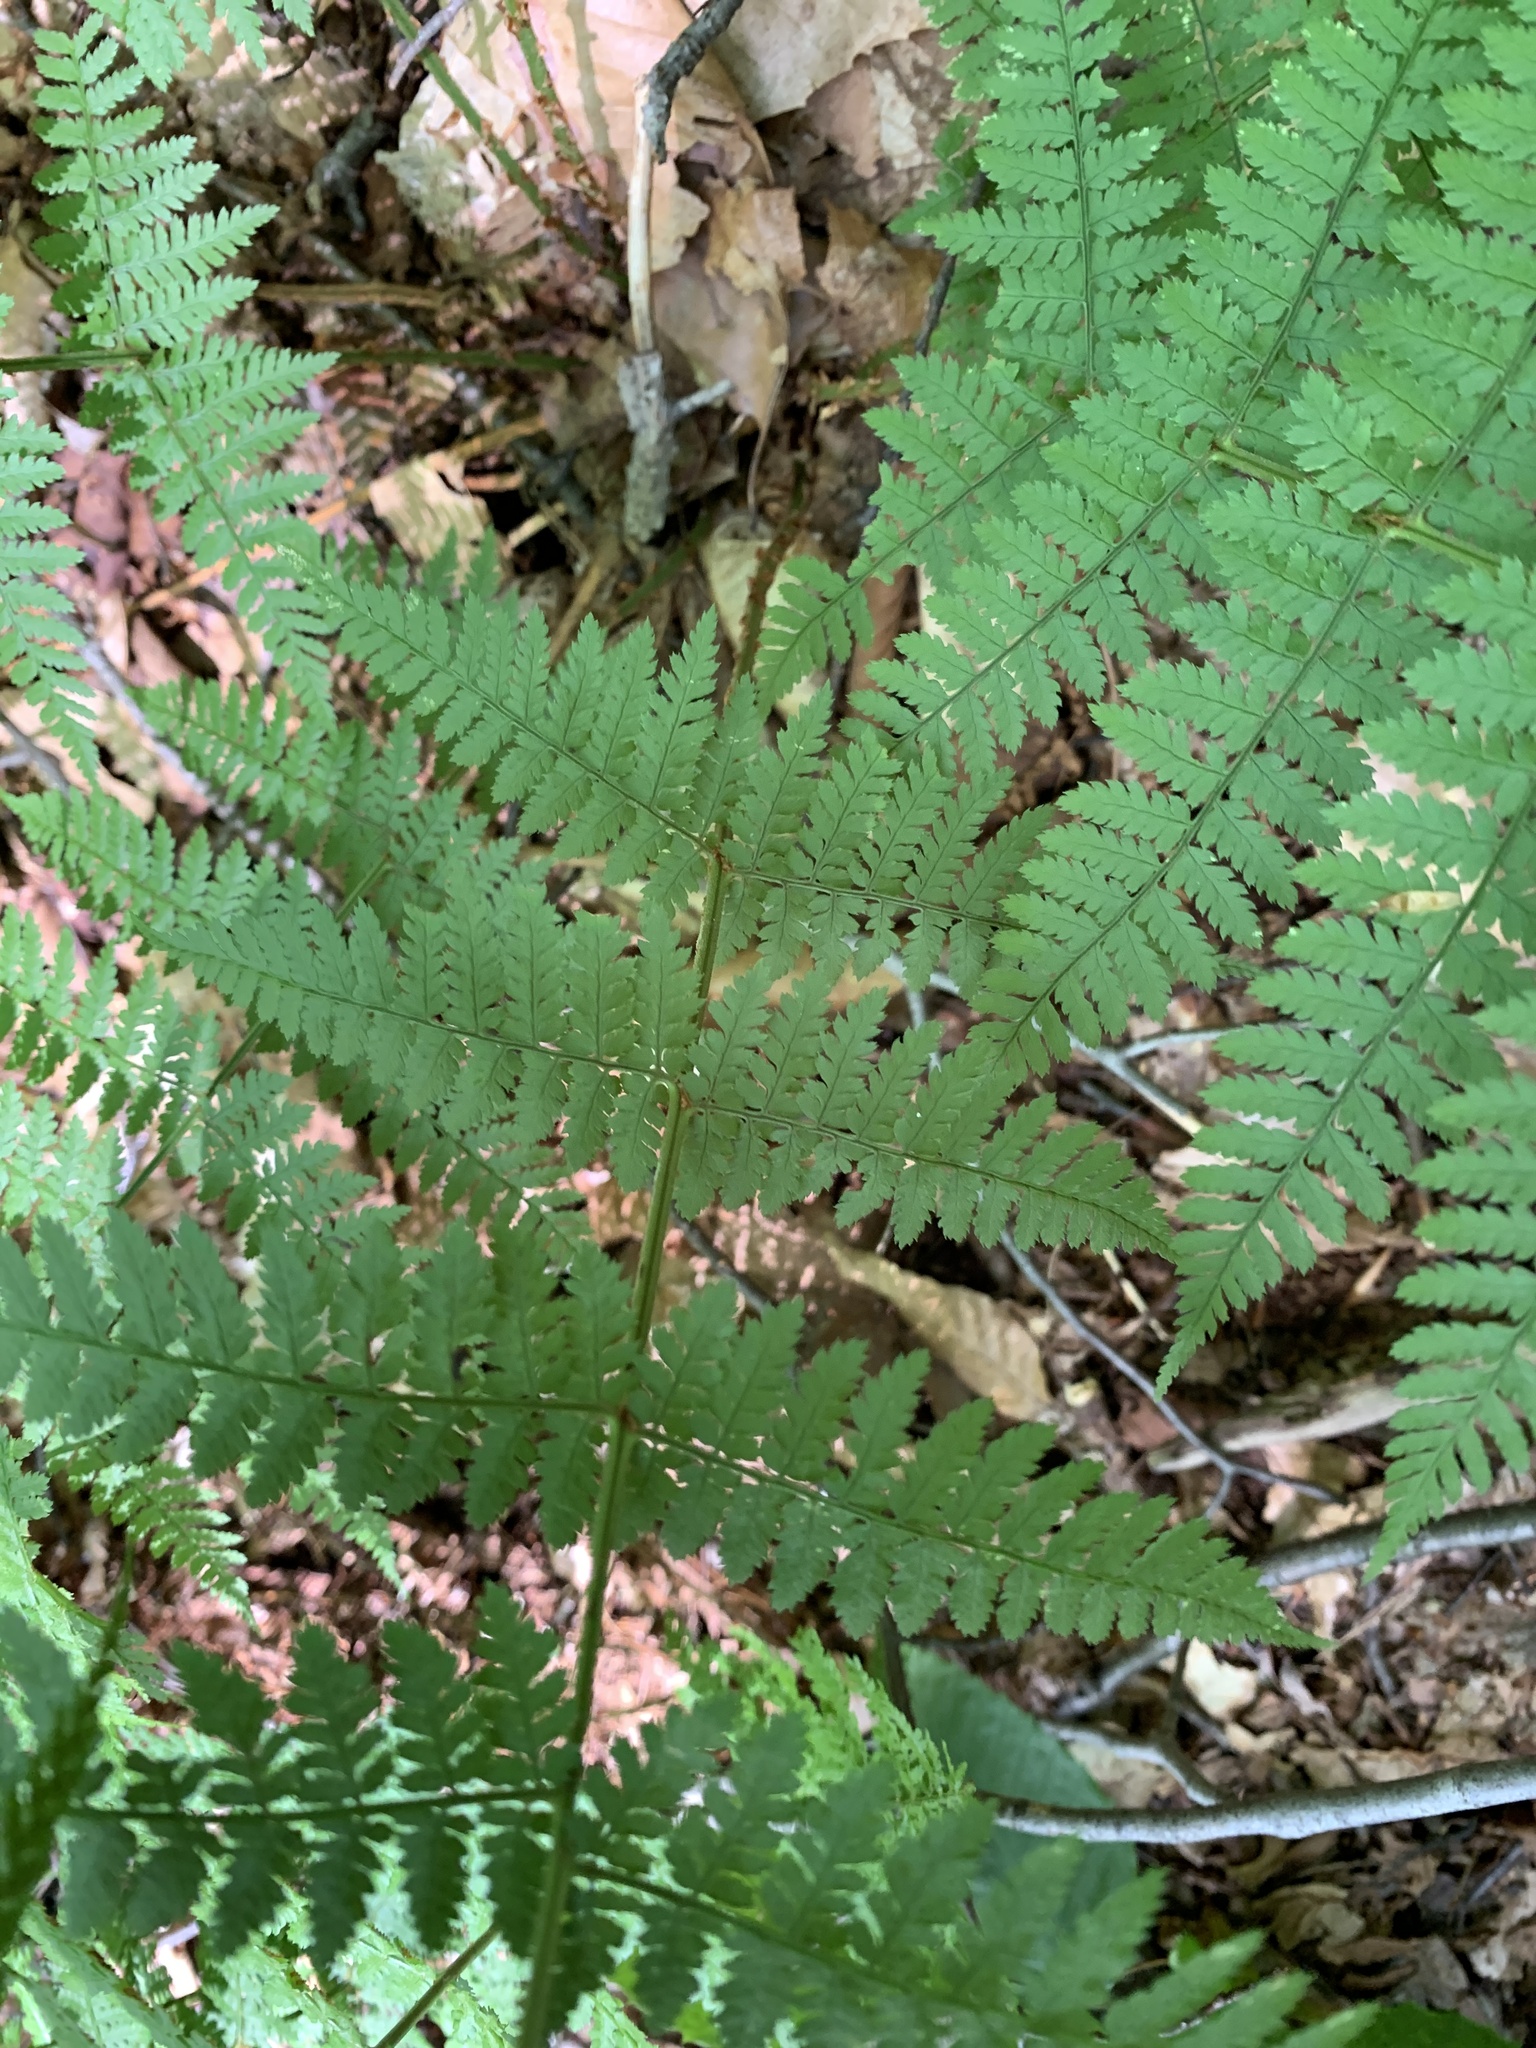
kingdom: Plantae
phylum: Tracheophyta
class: Polypodiopsida
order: Polypodiales
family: Dryopteridaceae
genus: Dryopteris
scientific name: Dryopteris intermedia
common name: Evergreen wood fern
